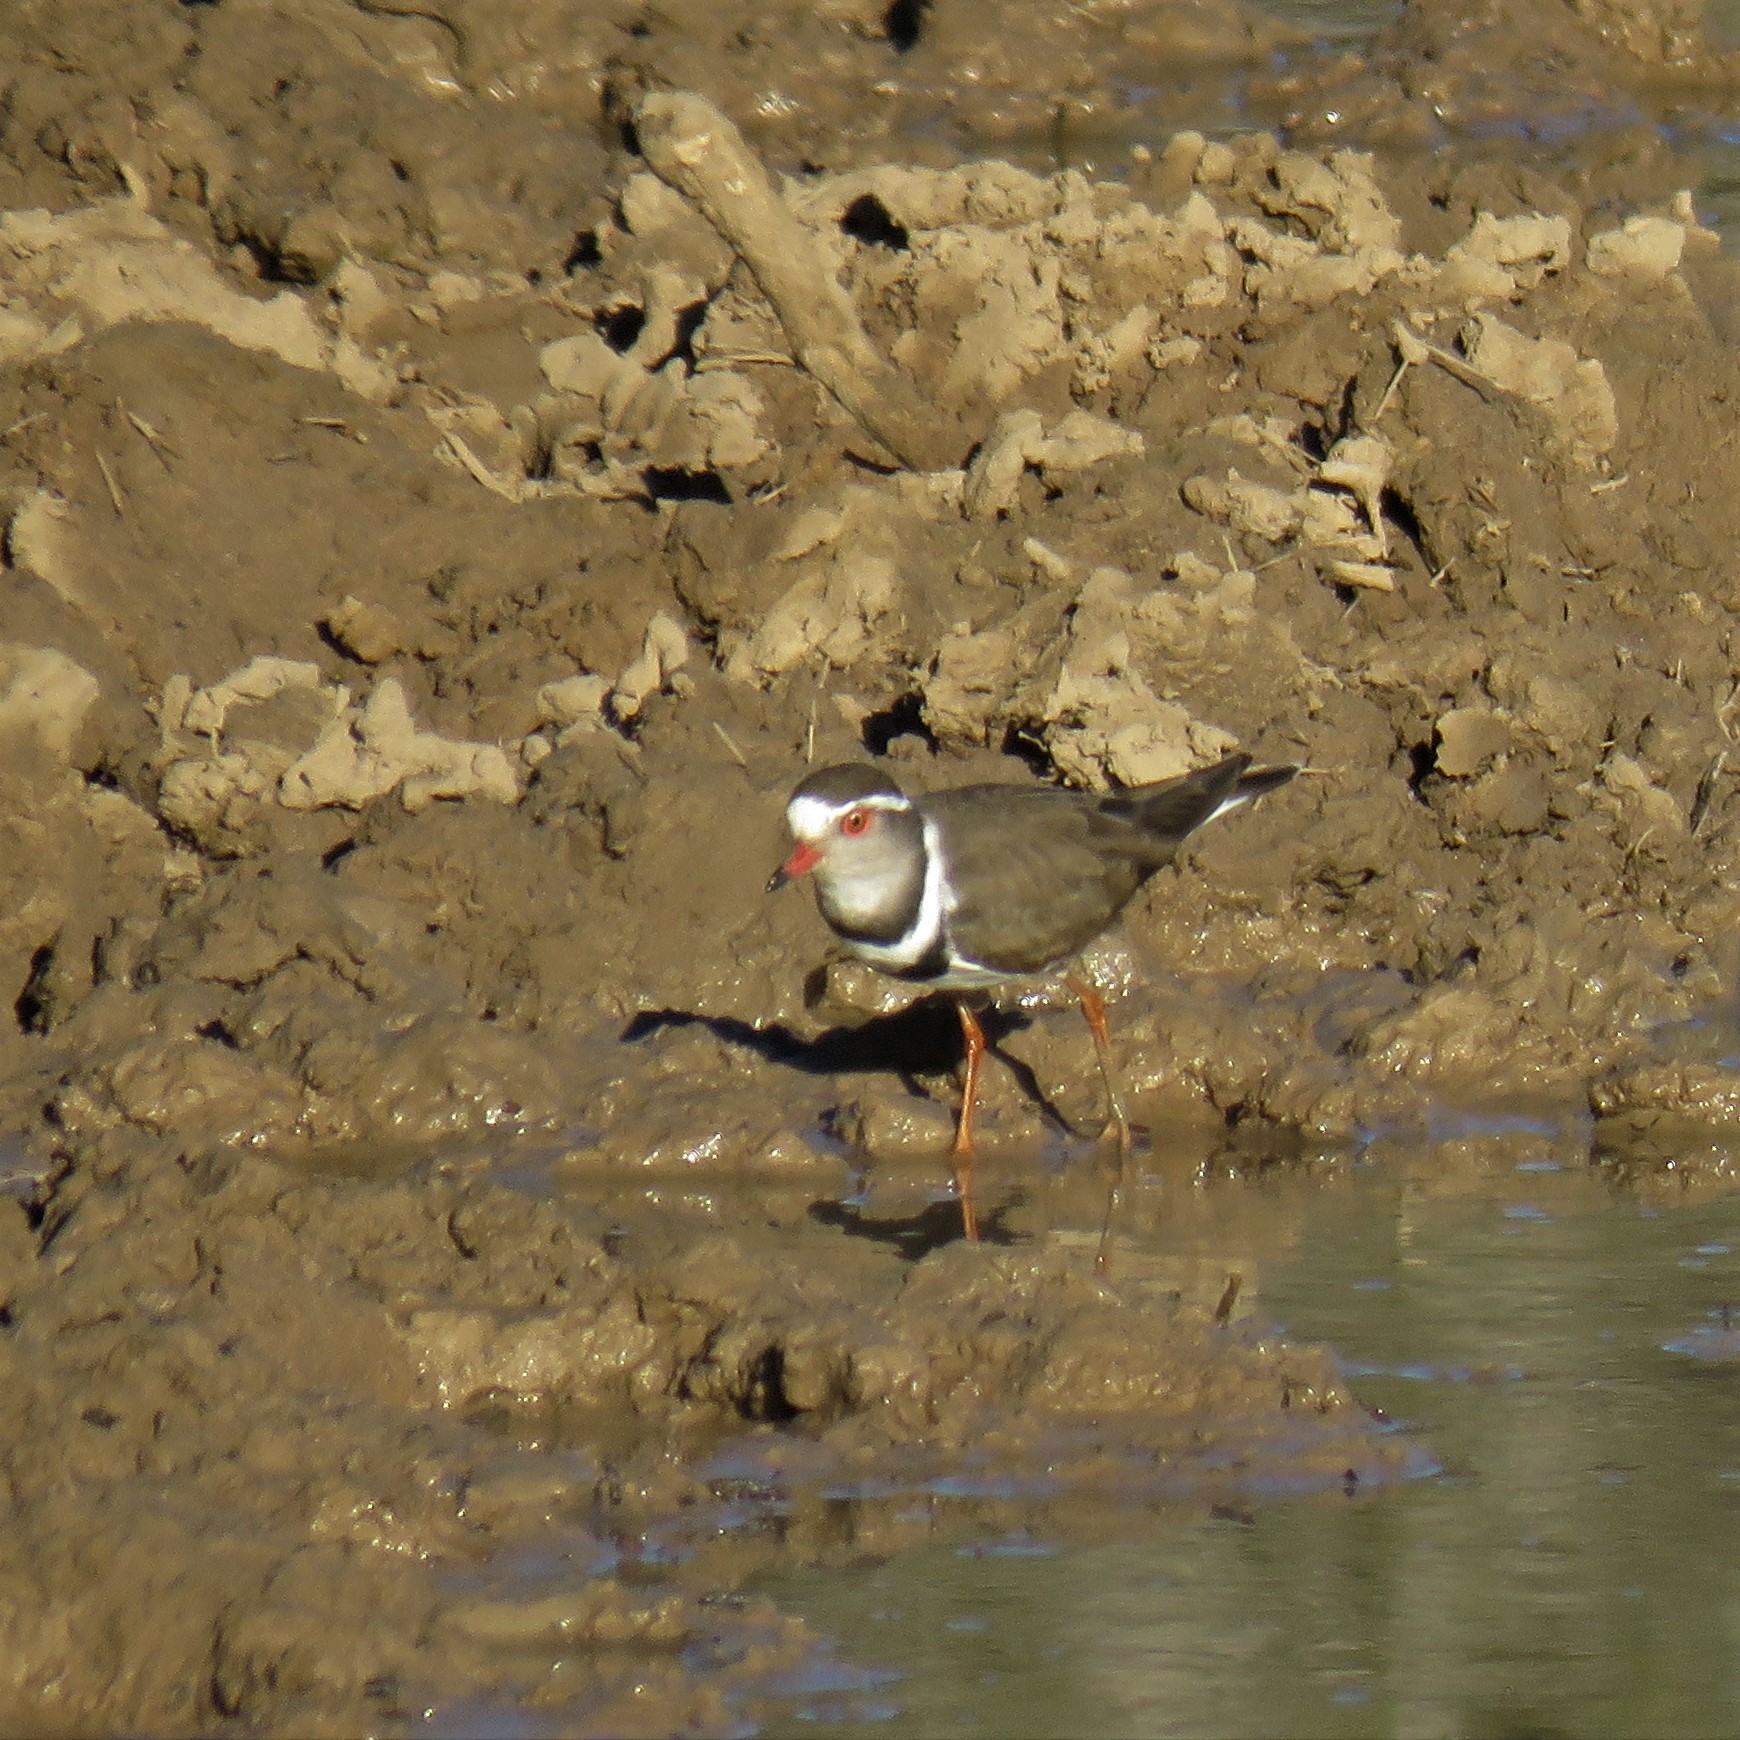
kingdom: Animalia
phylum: Chordata
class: Aves
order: Charadriiformes
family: Charadriidae
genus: Charadrius
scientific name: Charadrius tricollaris
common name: Three-banded plover
